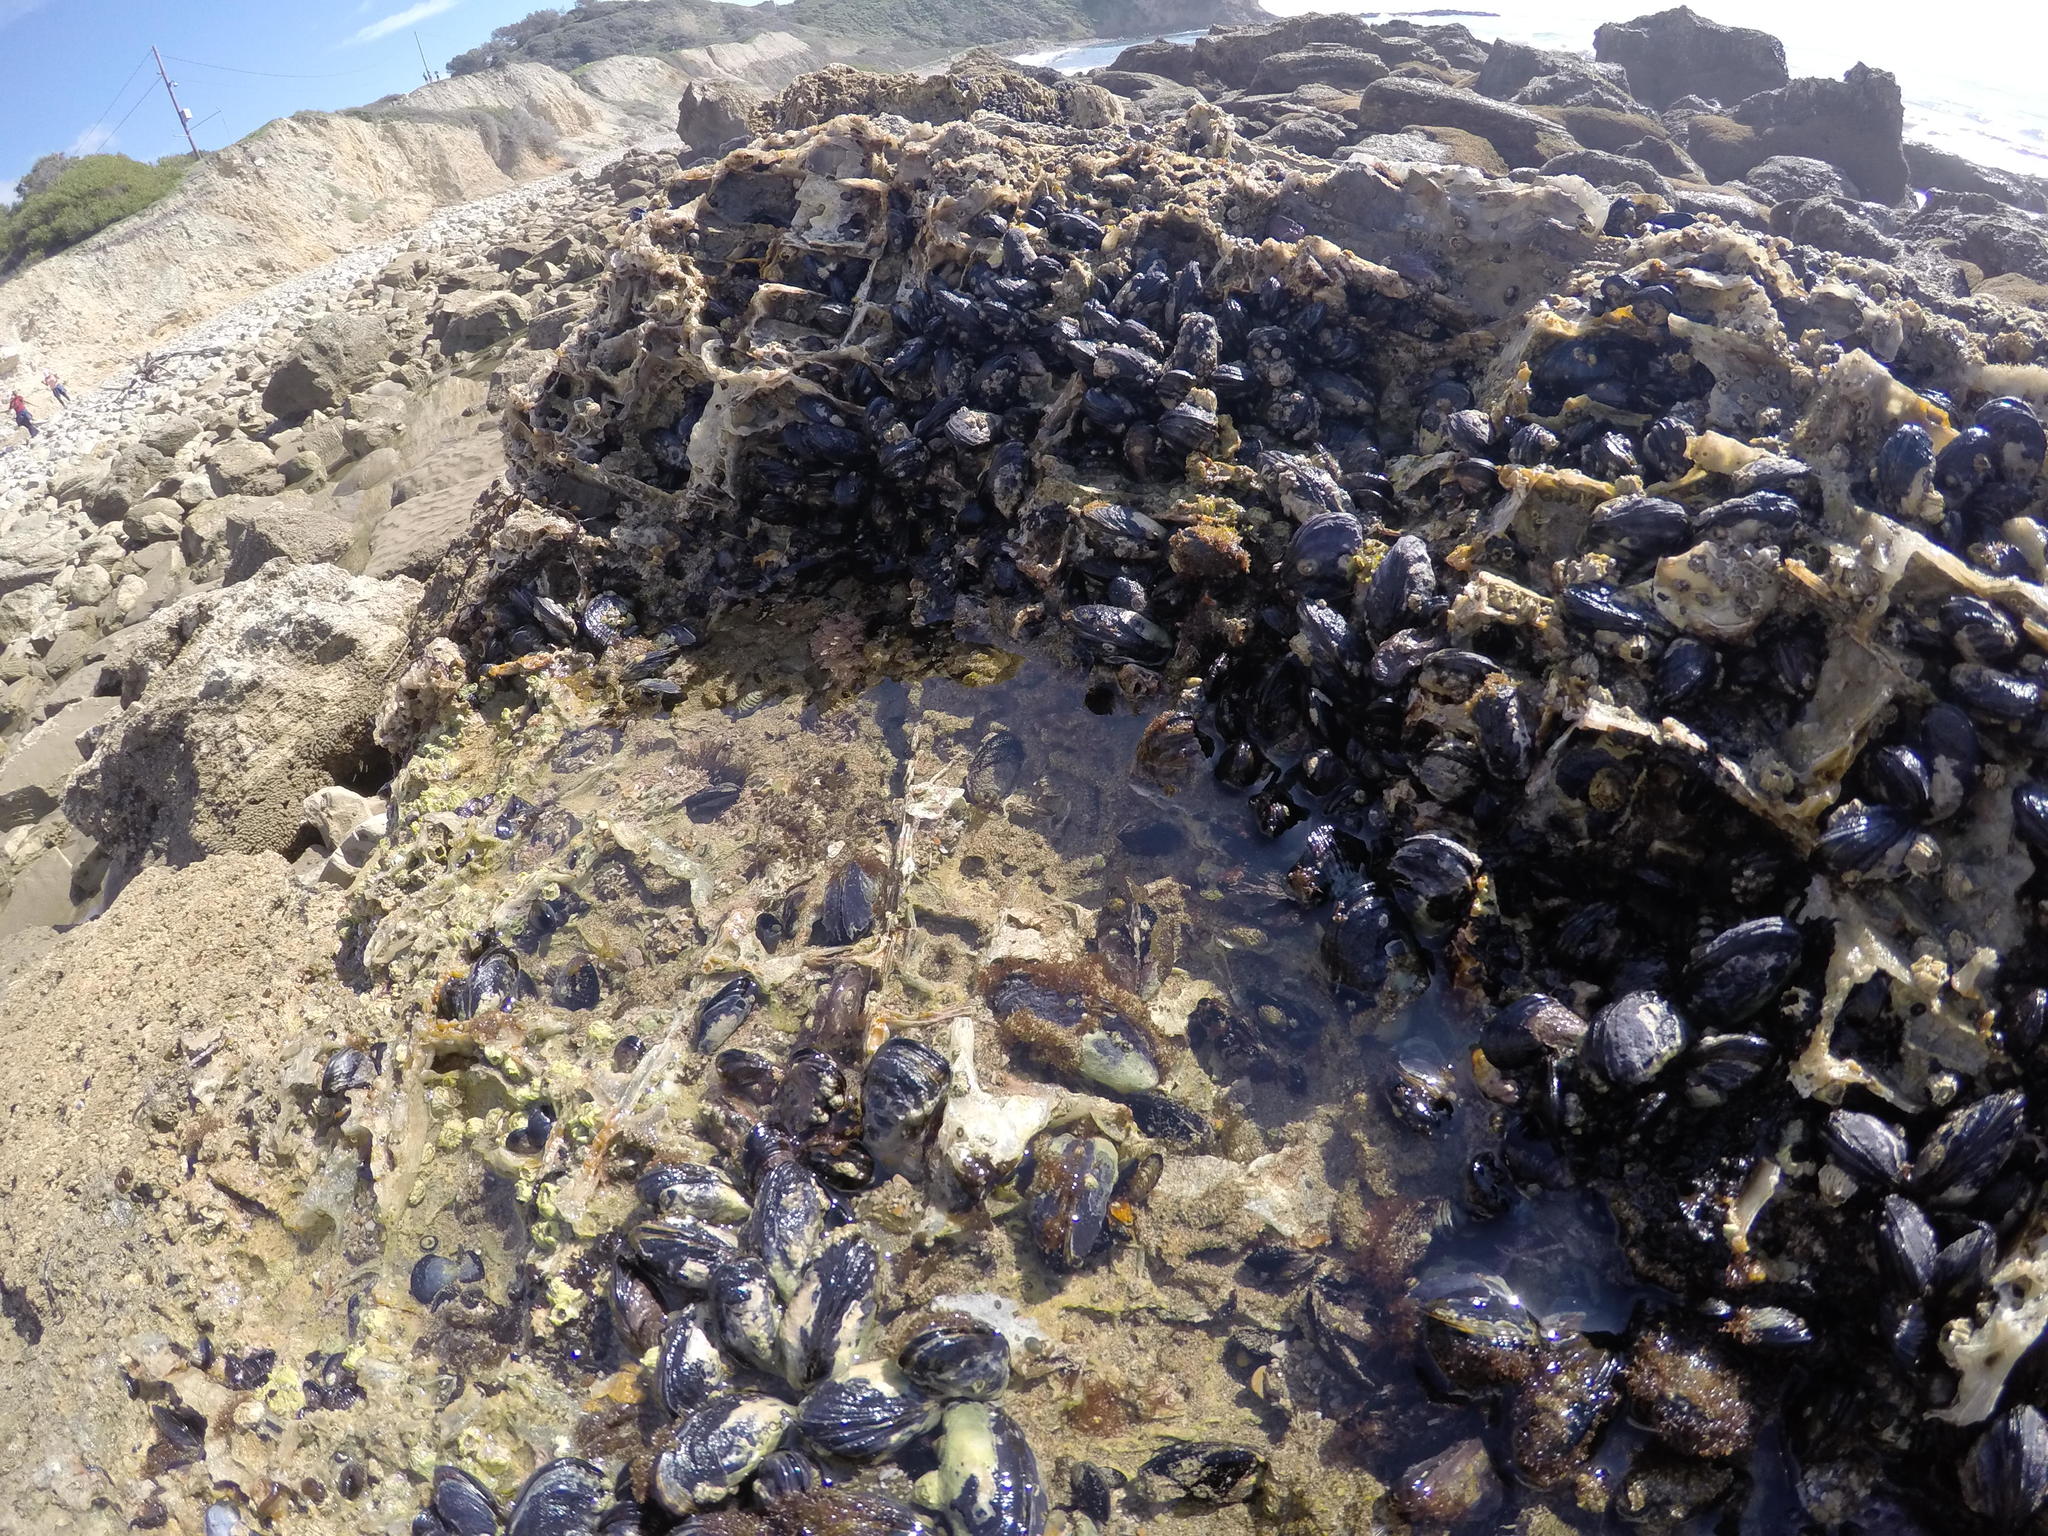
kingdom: Animalia
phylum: Mollusca
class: Bivalvia
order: Mytilida
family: Mytilidae
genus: Mytilus
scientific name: Mytilus californianus
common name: California mussel
